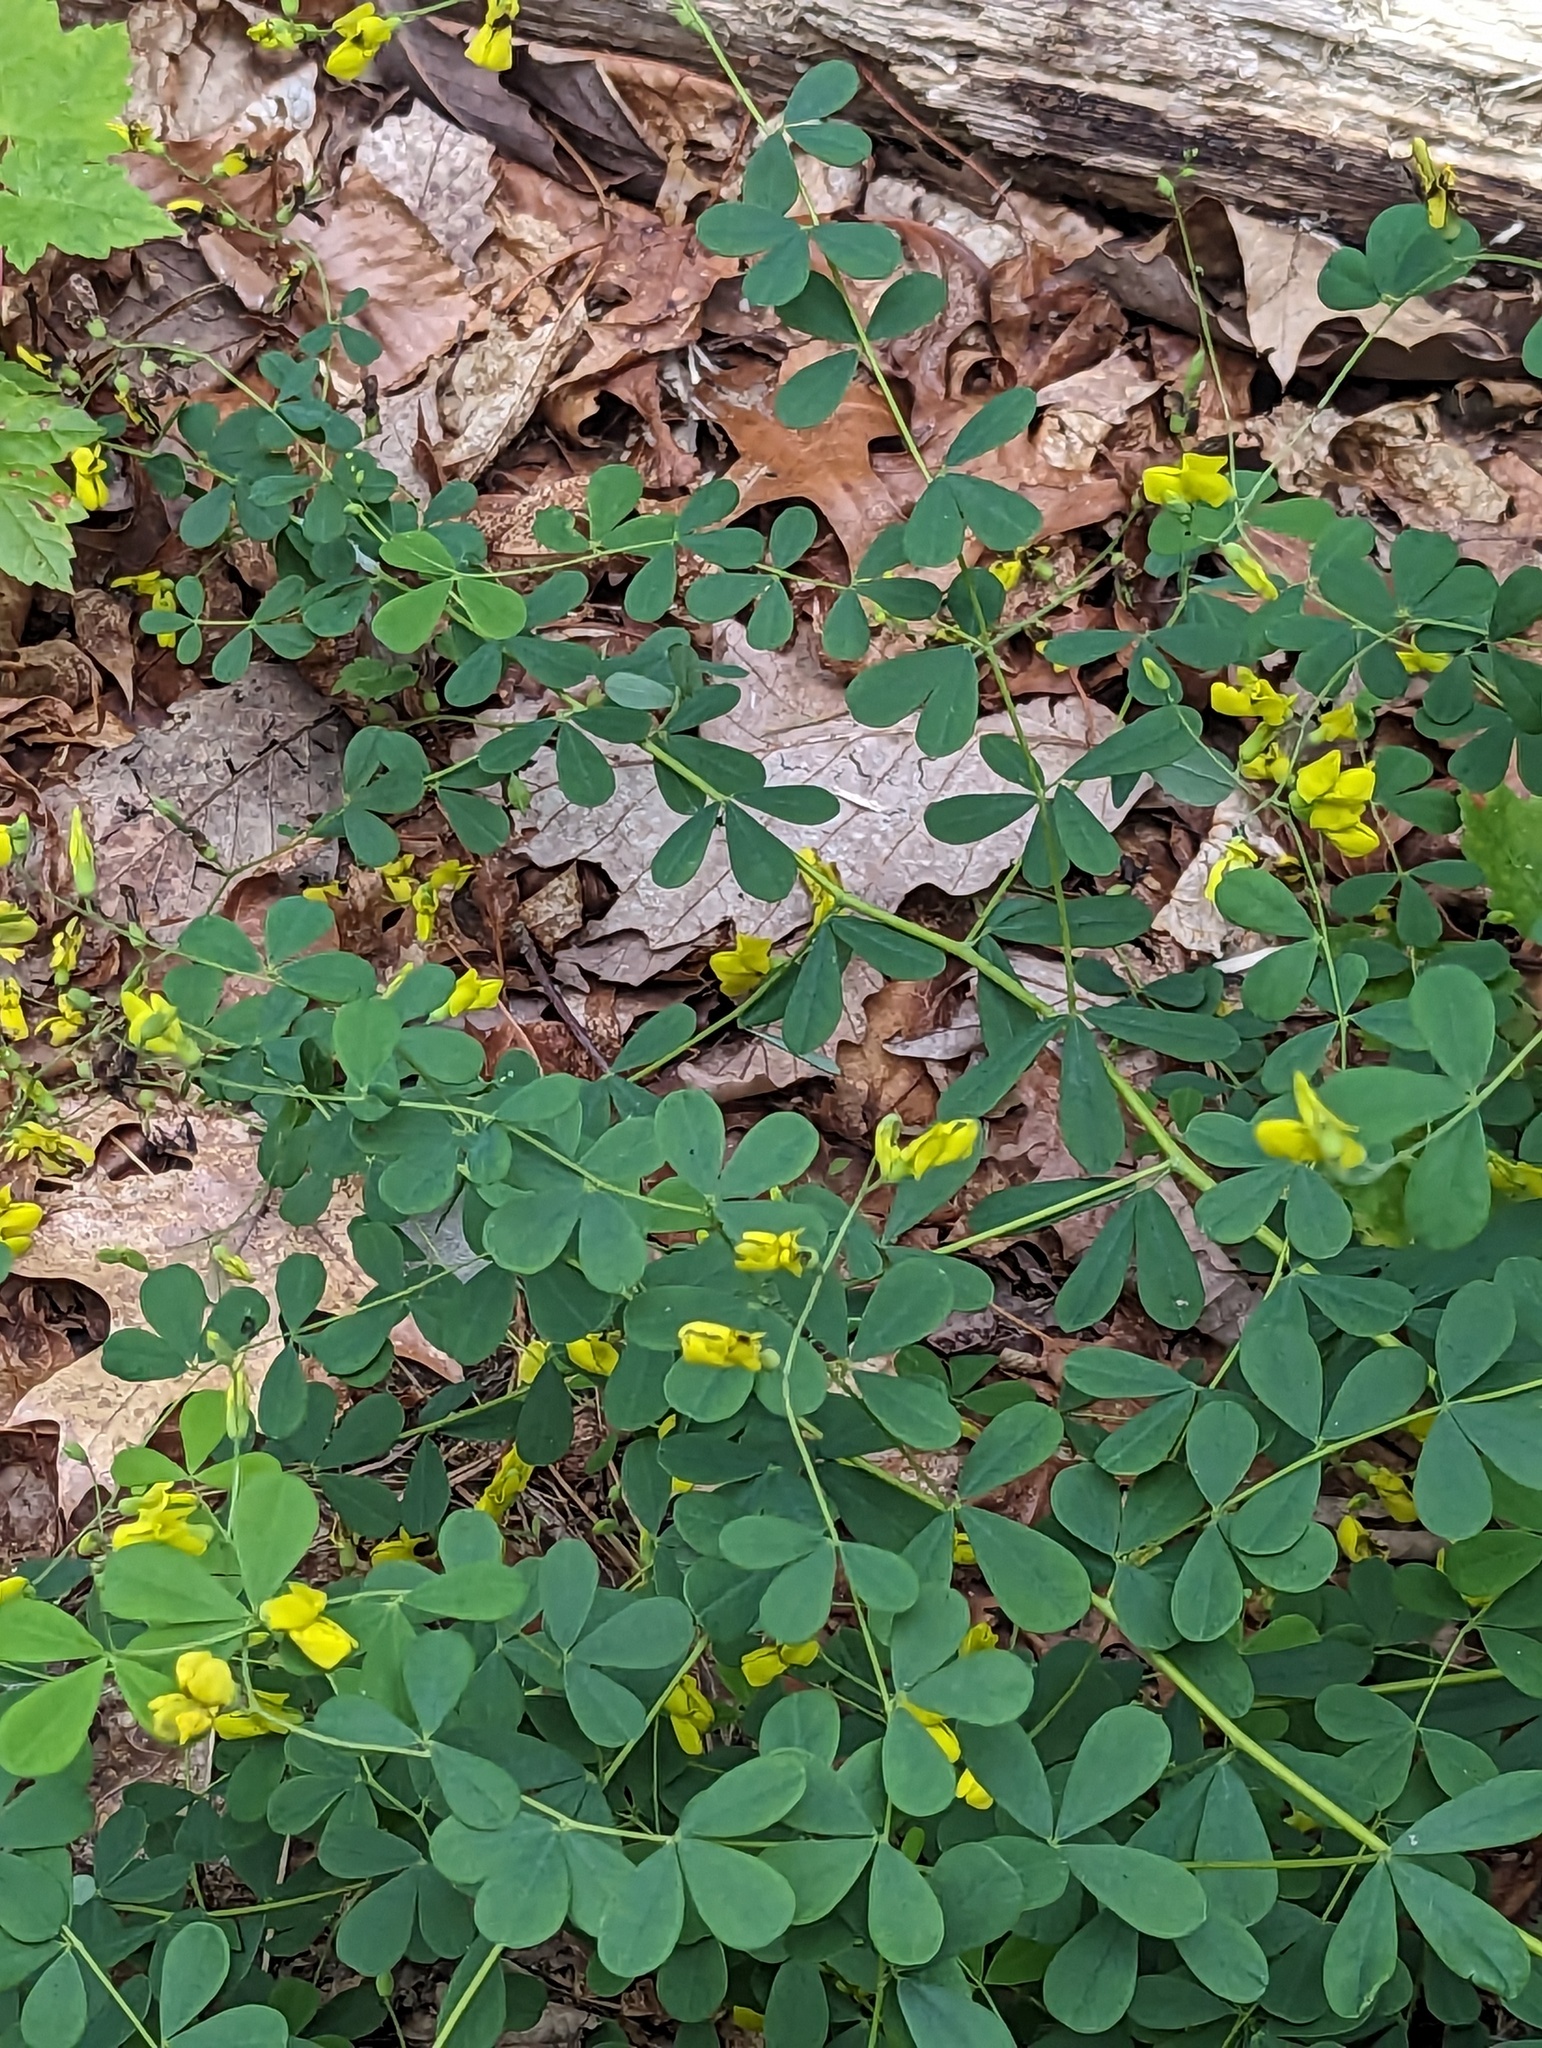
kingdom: Plantae
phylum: Tracheophyta
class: Magnoliopsida
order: Fabales
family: Fabaceae
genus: Baptisia
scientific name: Baptisia tinctoria
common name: Wild indigo
